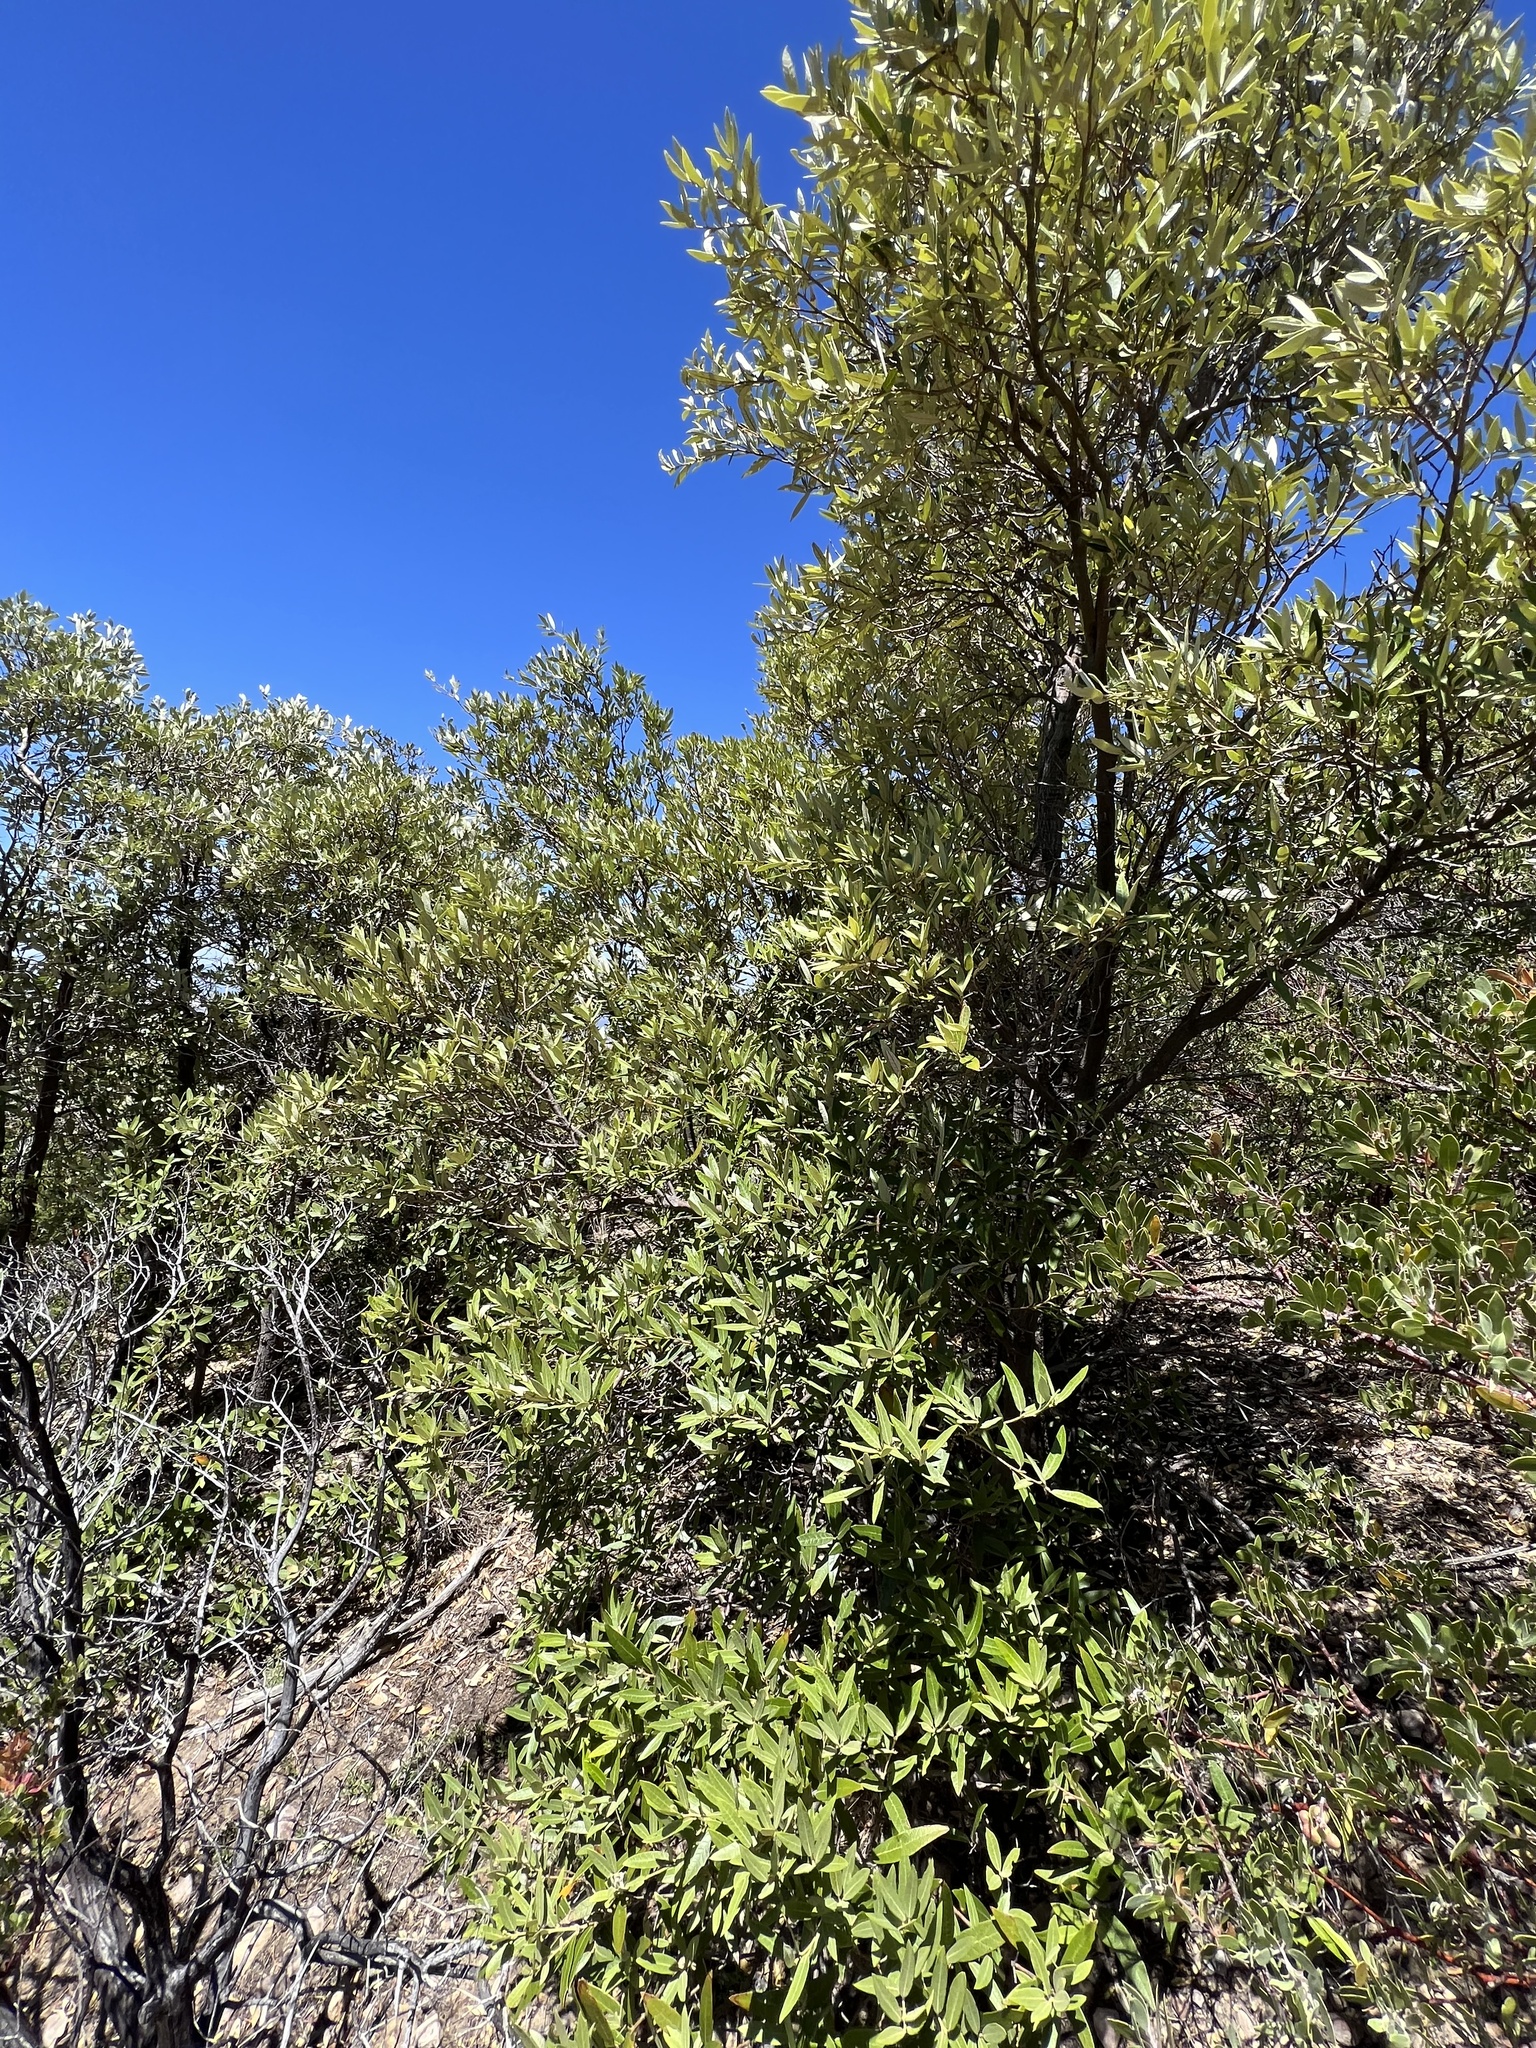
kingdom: Plantae
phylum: Tracheophyta
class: Magnoliopsida
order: Fagales
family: Fagaceae
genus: Quercus
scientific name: Quercus hypoleucoides
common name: Silverleaf oak
